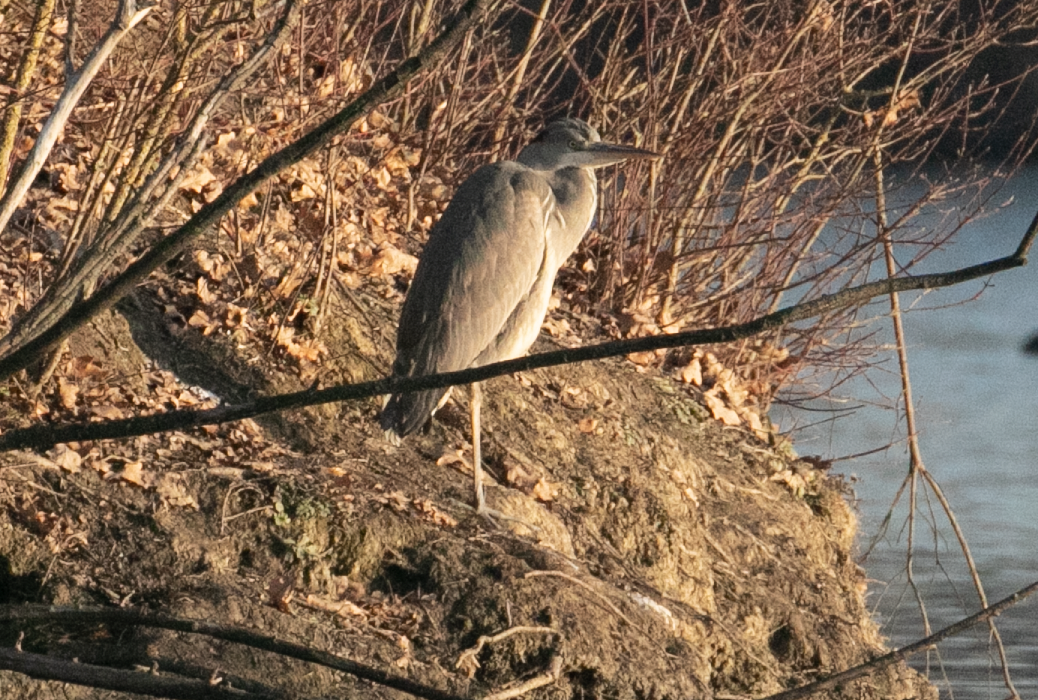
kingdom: Animalia
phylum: Chordata
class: Aves
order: Pelecaniformes
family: Ardeidae
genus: Ardea
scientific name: Ardea cinerea
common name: Grey heron
